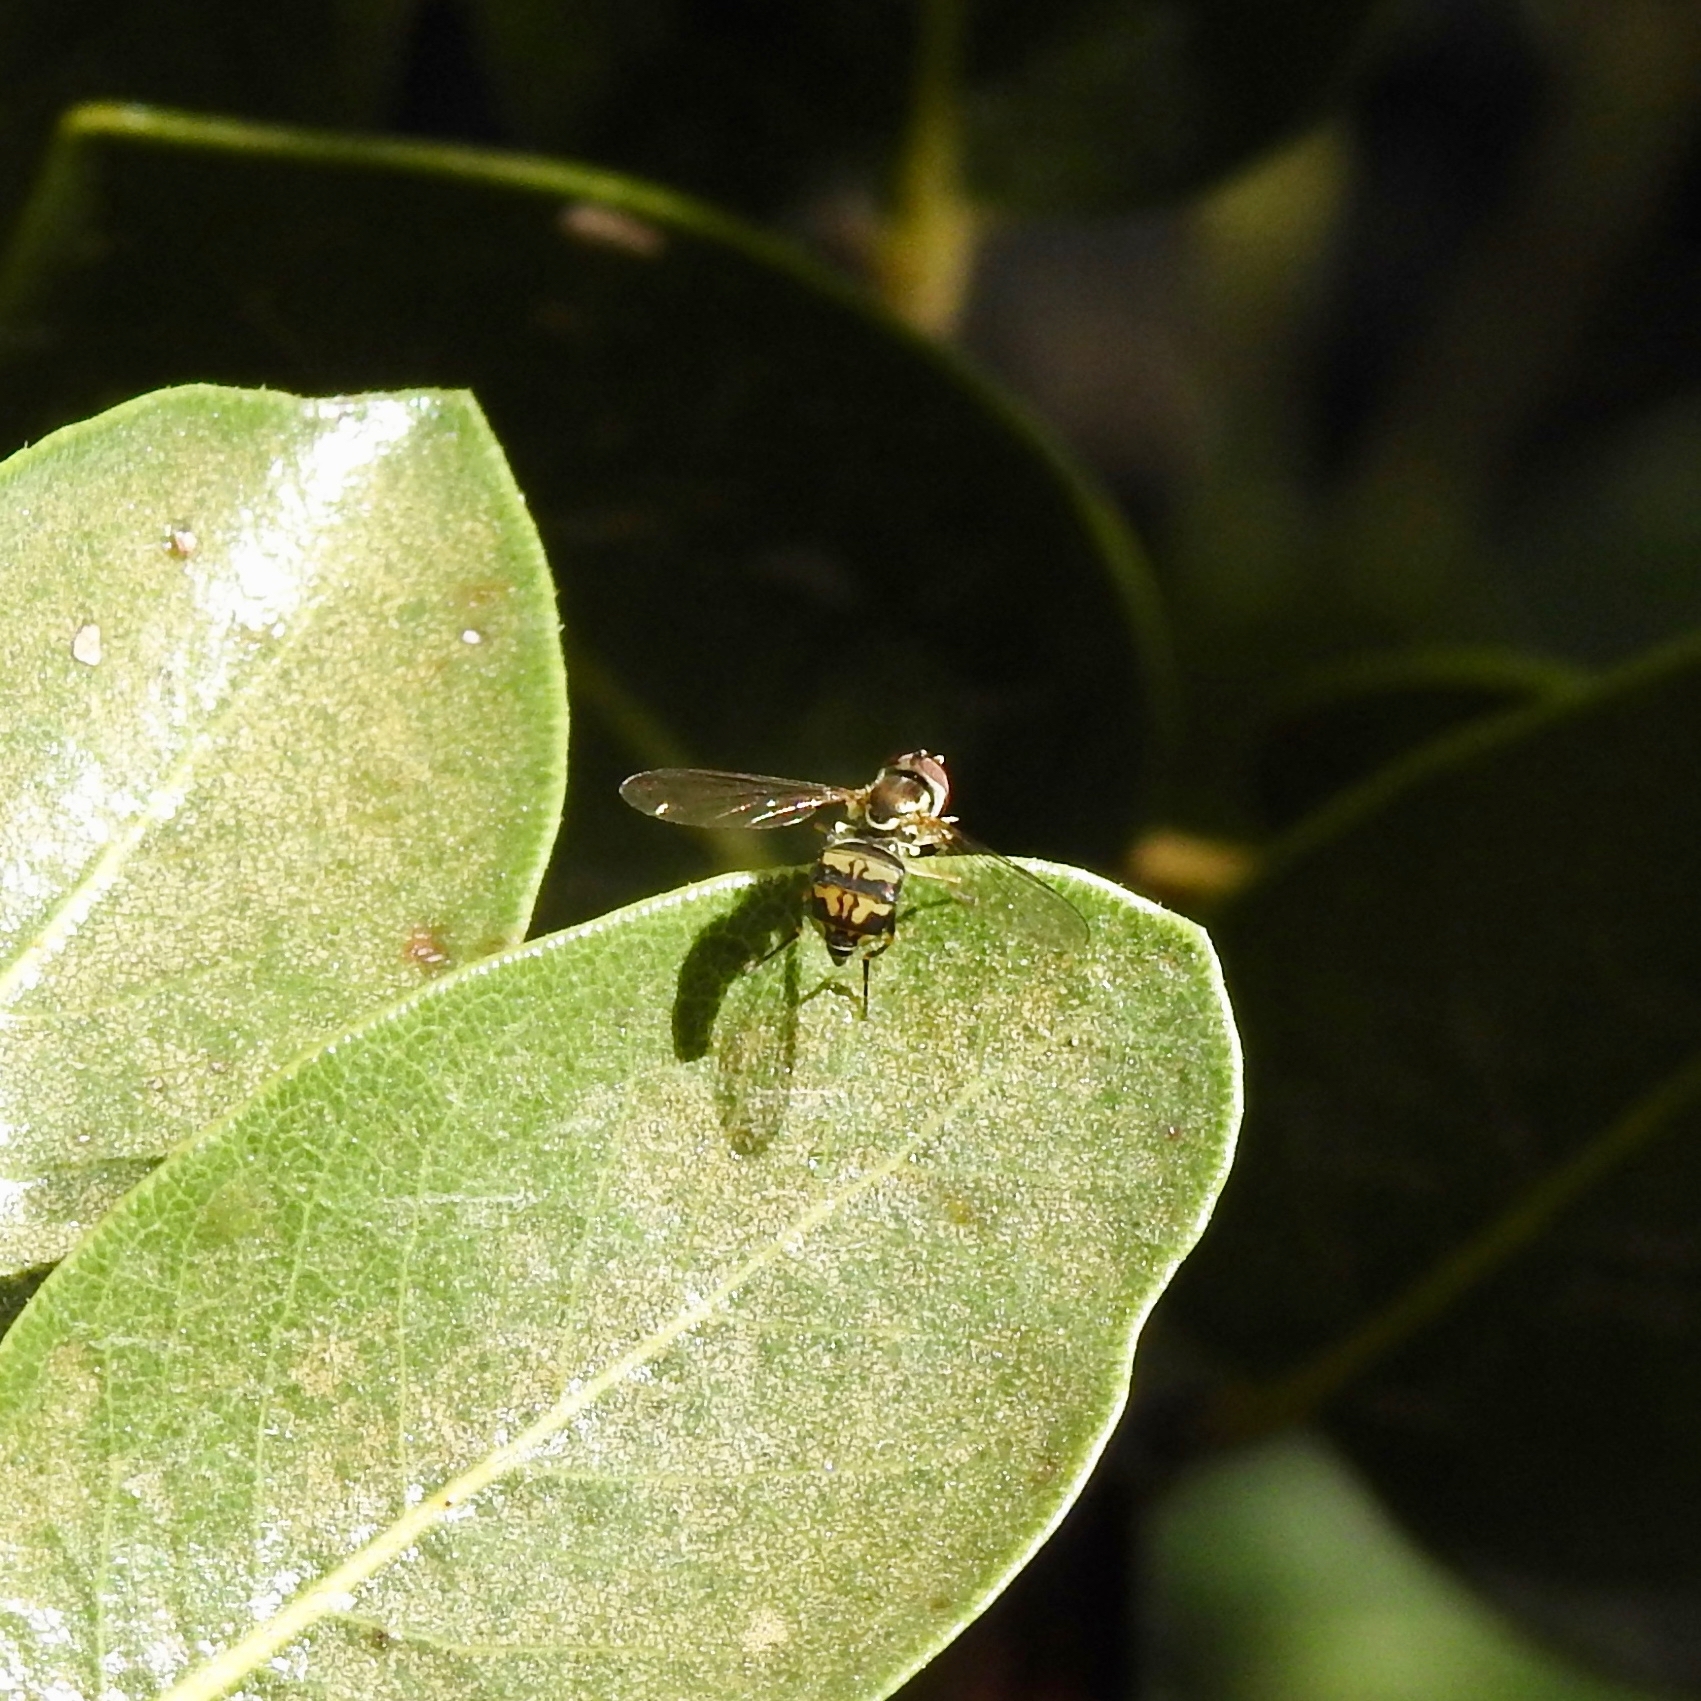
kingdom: Animalia
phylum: Arthropoda
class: Insecta
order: Diptera
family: Syrphidae
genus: Toxomerus
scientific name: Toxomerus occidentalis
